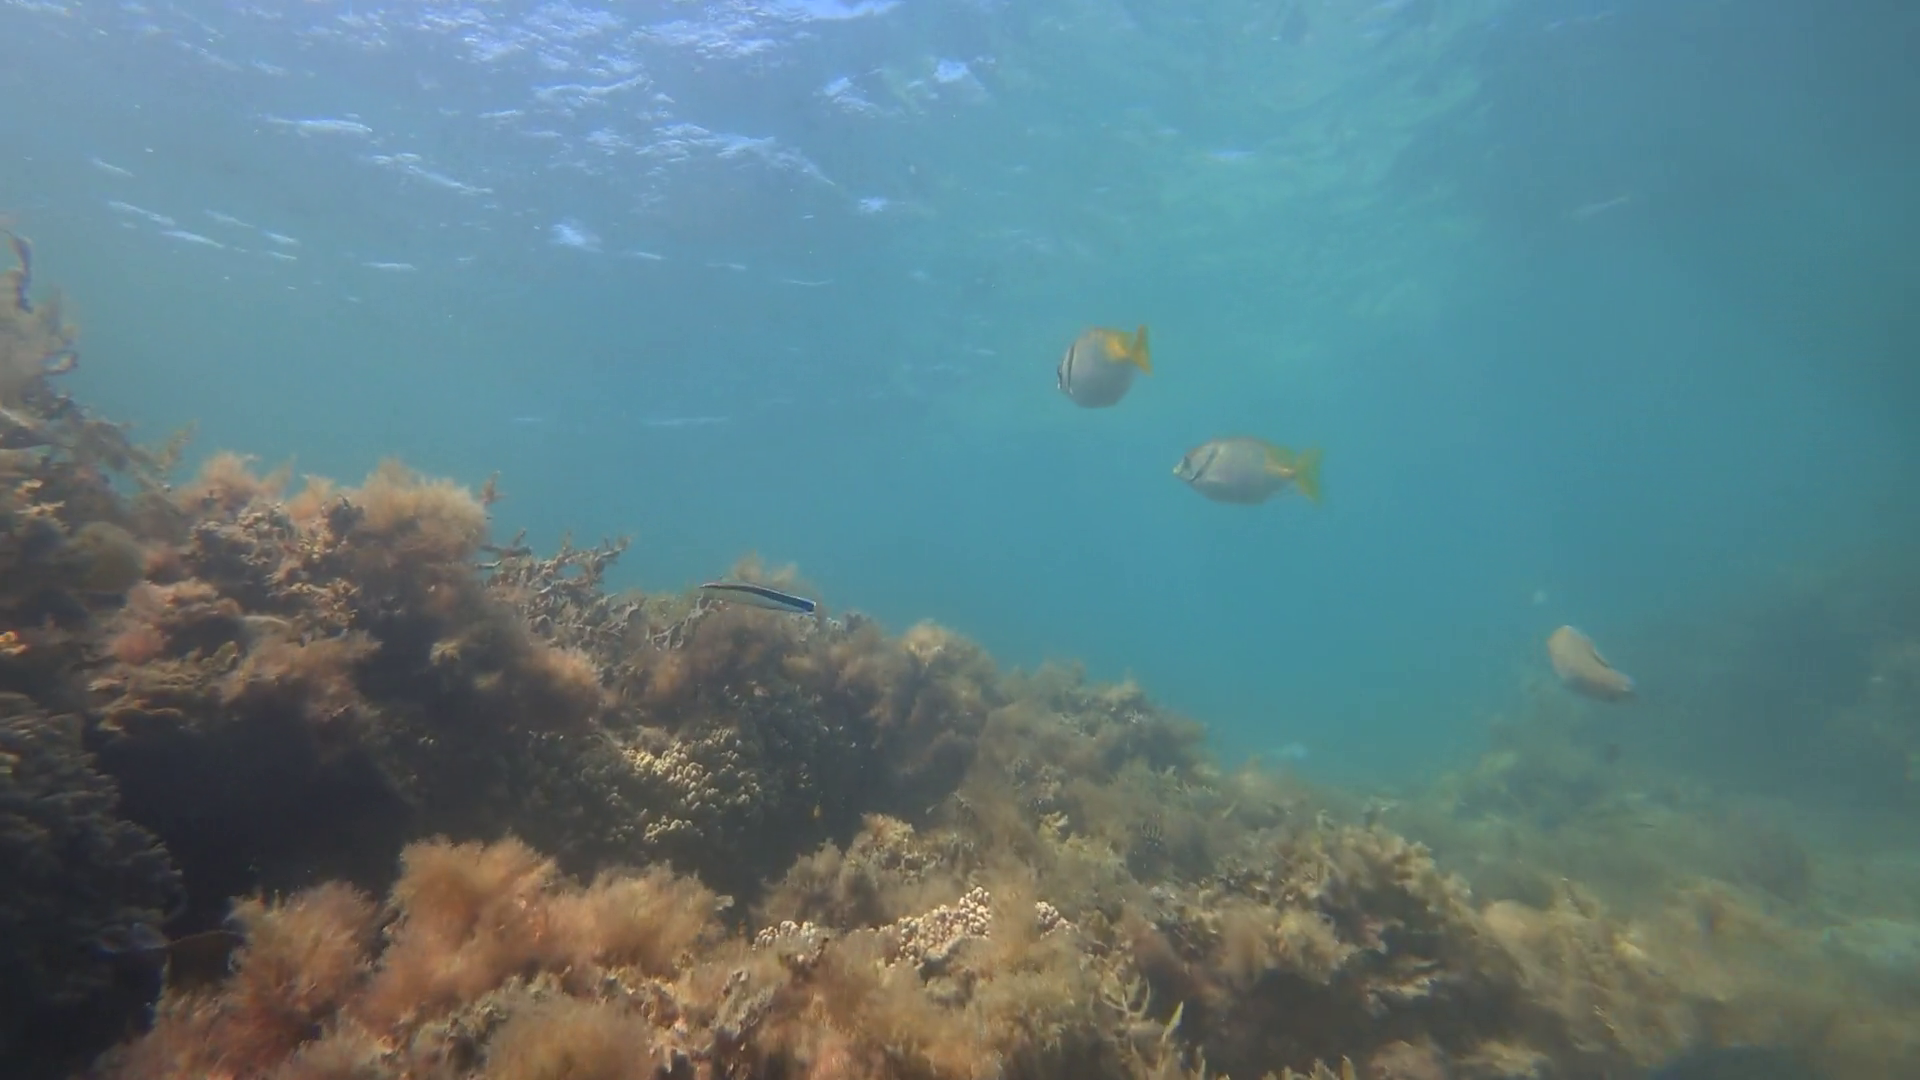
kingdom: Animalia
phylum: Chordata
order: Perciformes
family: Siganidae
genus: Siganus
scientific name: Siganus doliatus
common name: Barred spinefoot
